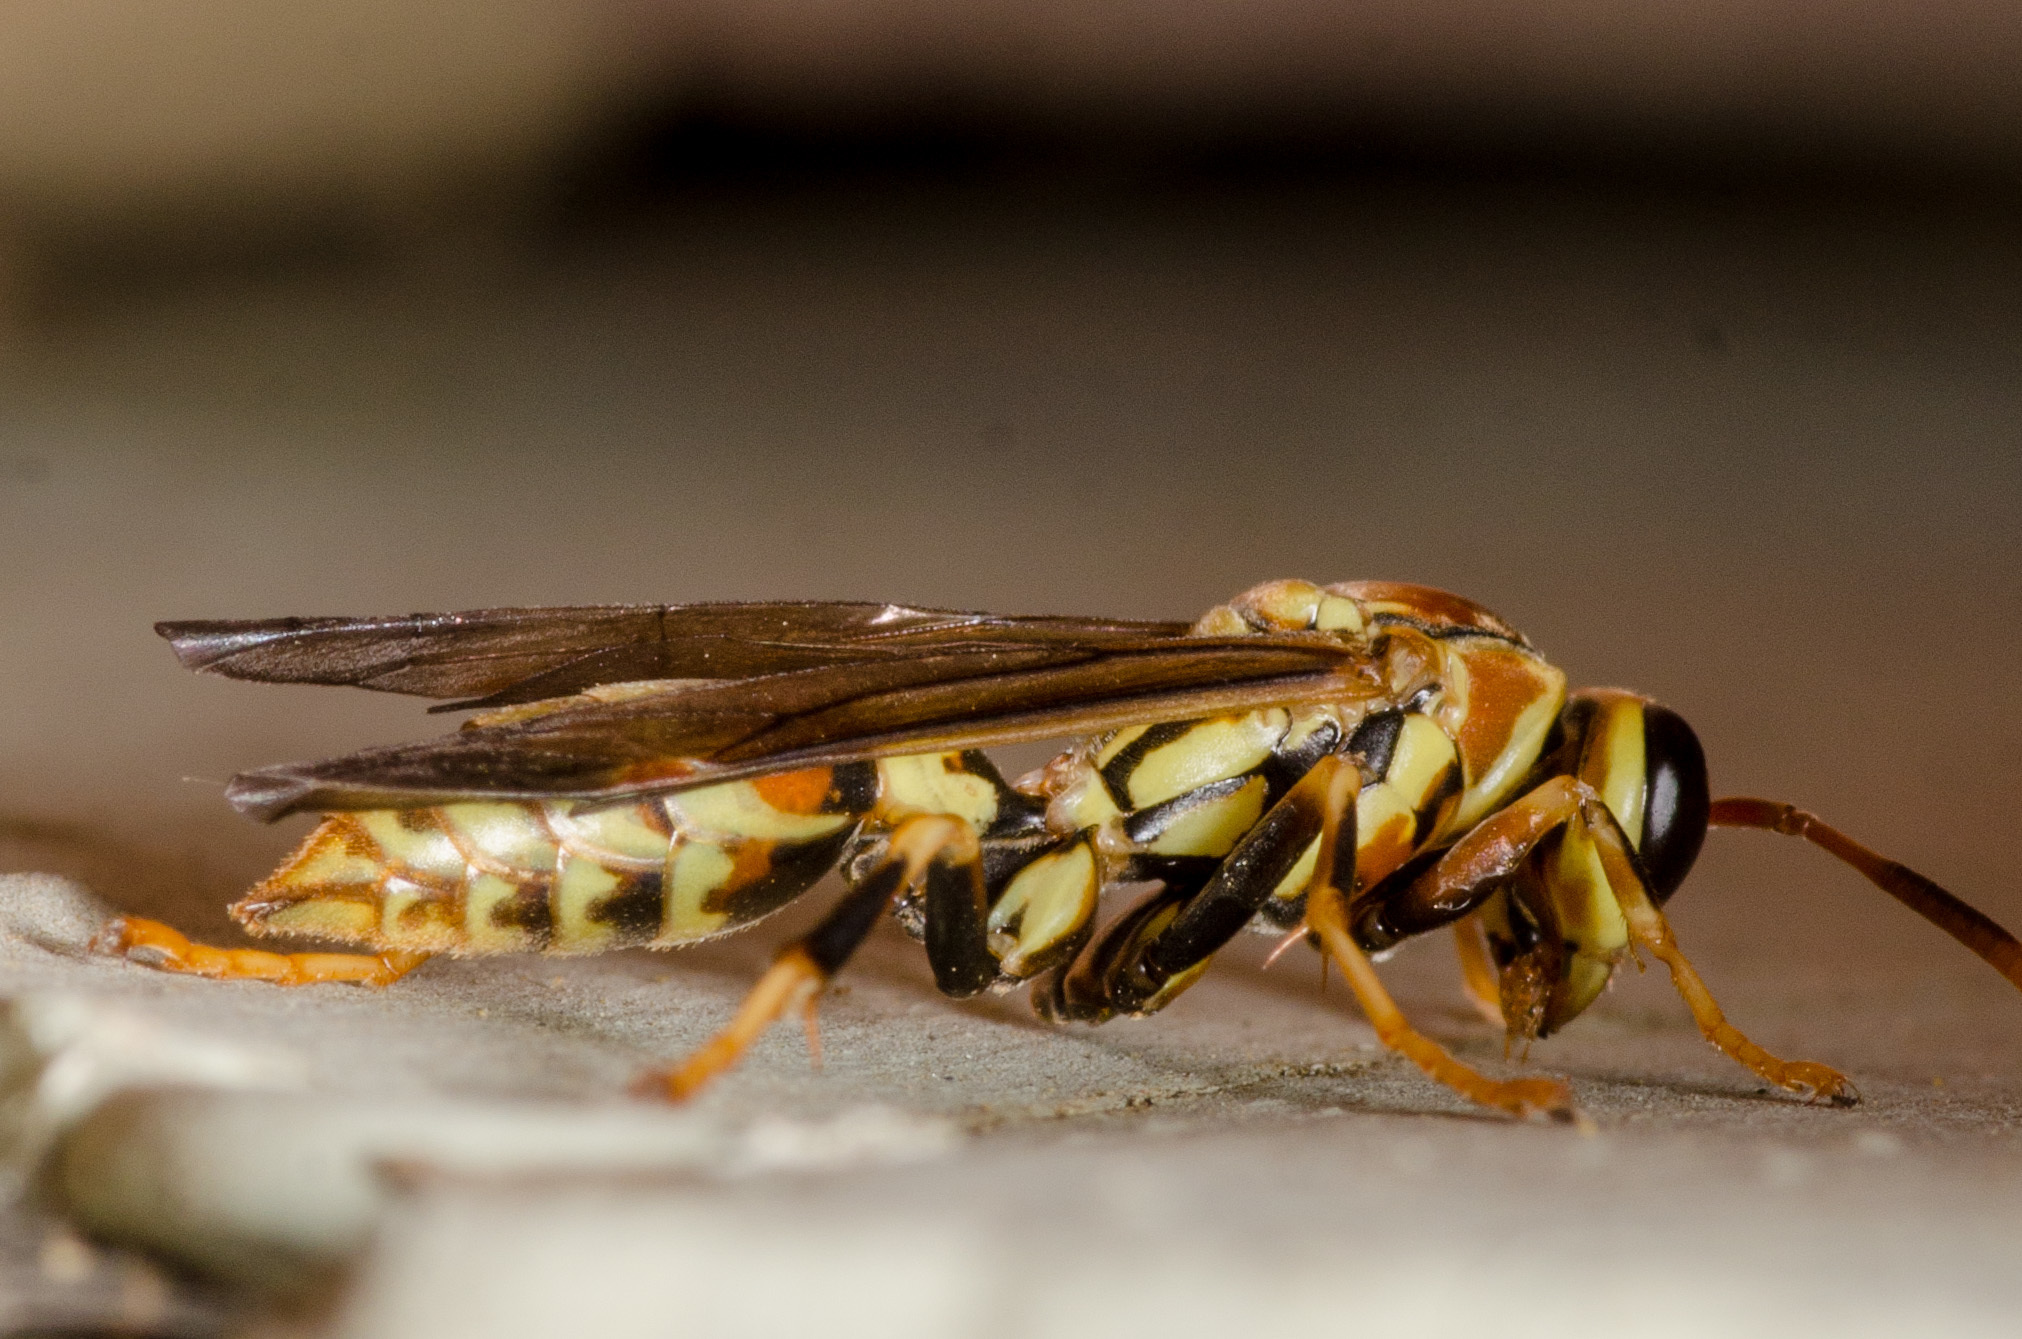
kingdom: Animalia
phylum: Arthropoda
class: Insecta
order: Hymenoptera
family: Eumenidae
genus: Polistes
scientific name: Polistes exclamans
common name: Paper wasp
